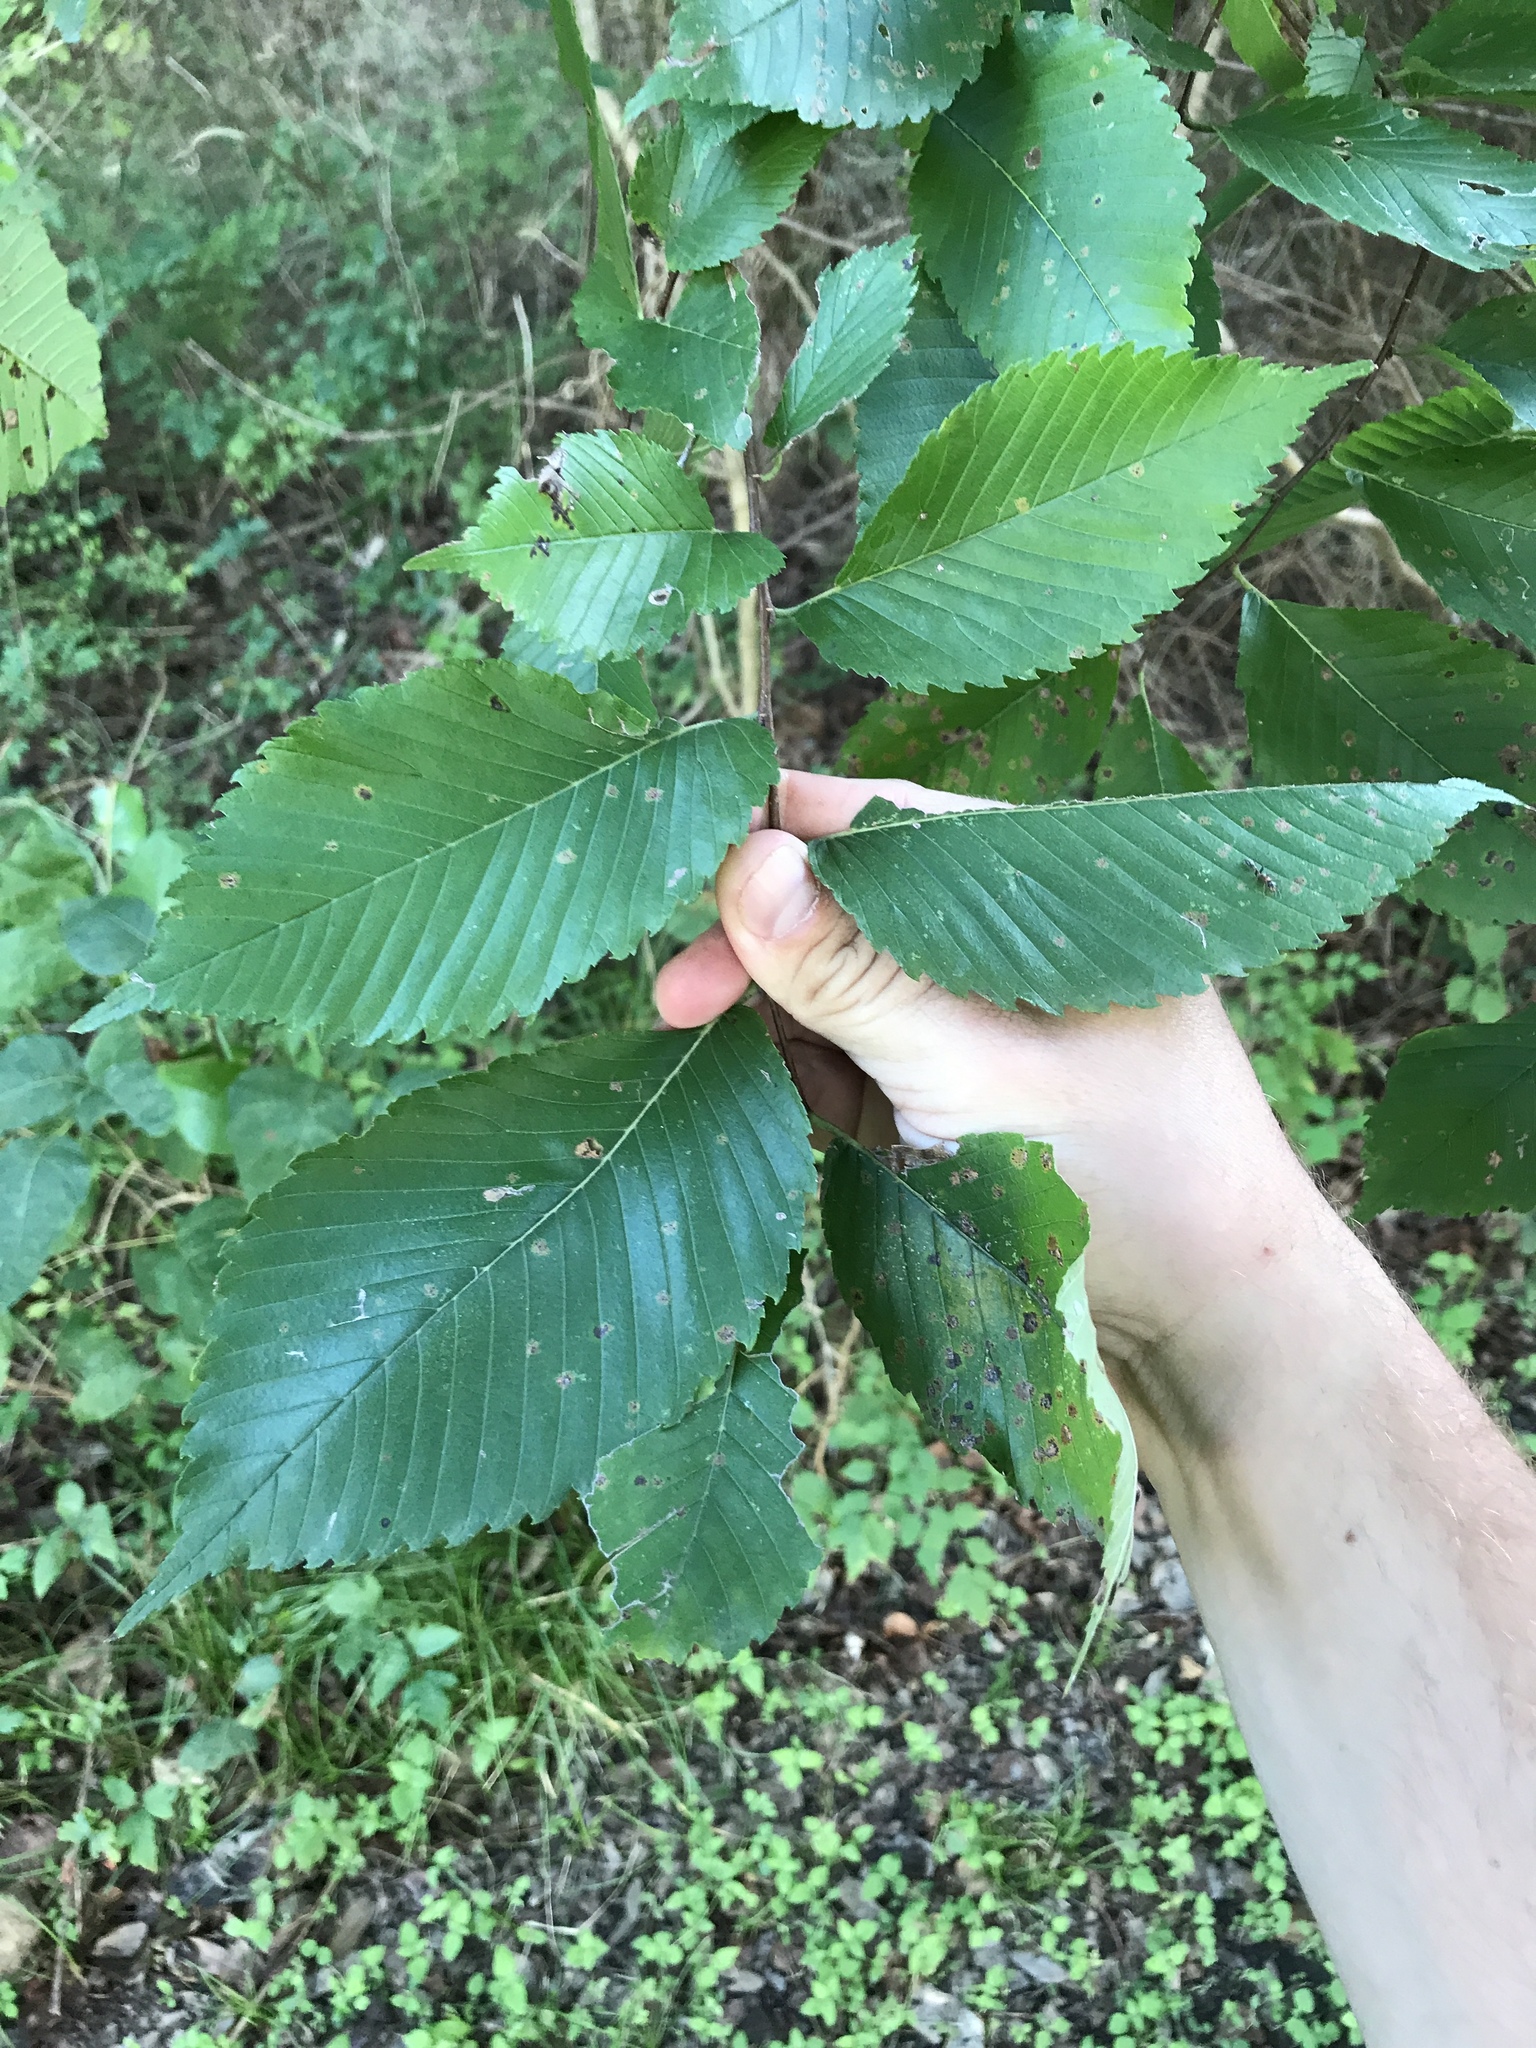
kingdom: Plantae
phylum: Tracheophyta
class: Magnoliopsida
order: Rosales
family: Ulmaceae
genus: Ulmus
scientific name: Ulmus americana
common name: American elm
